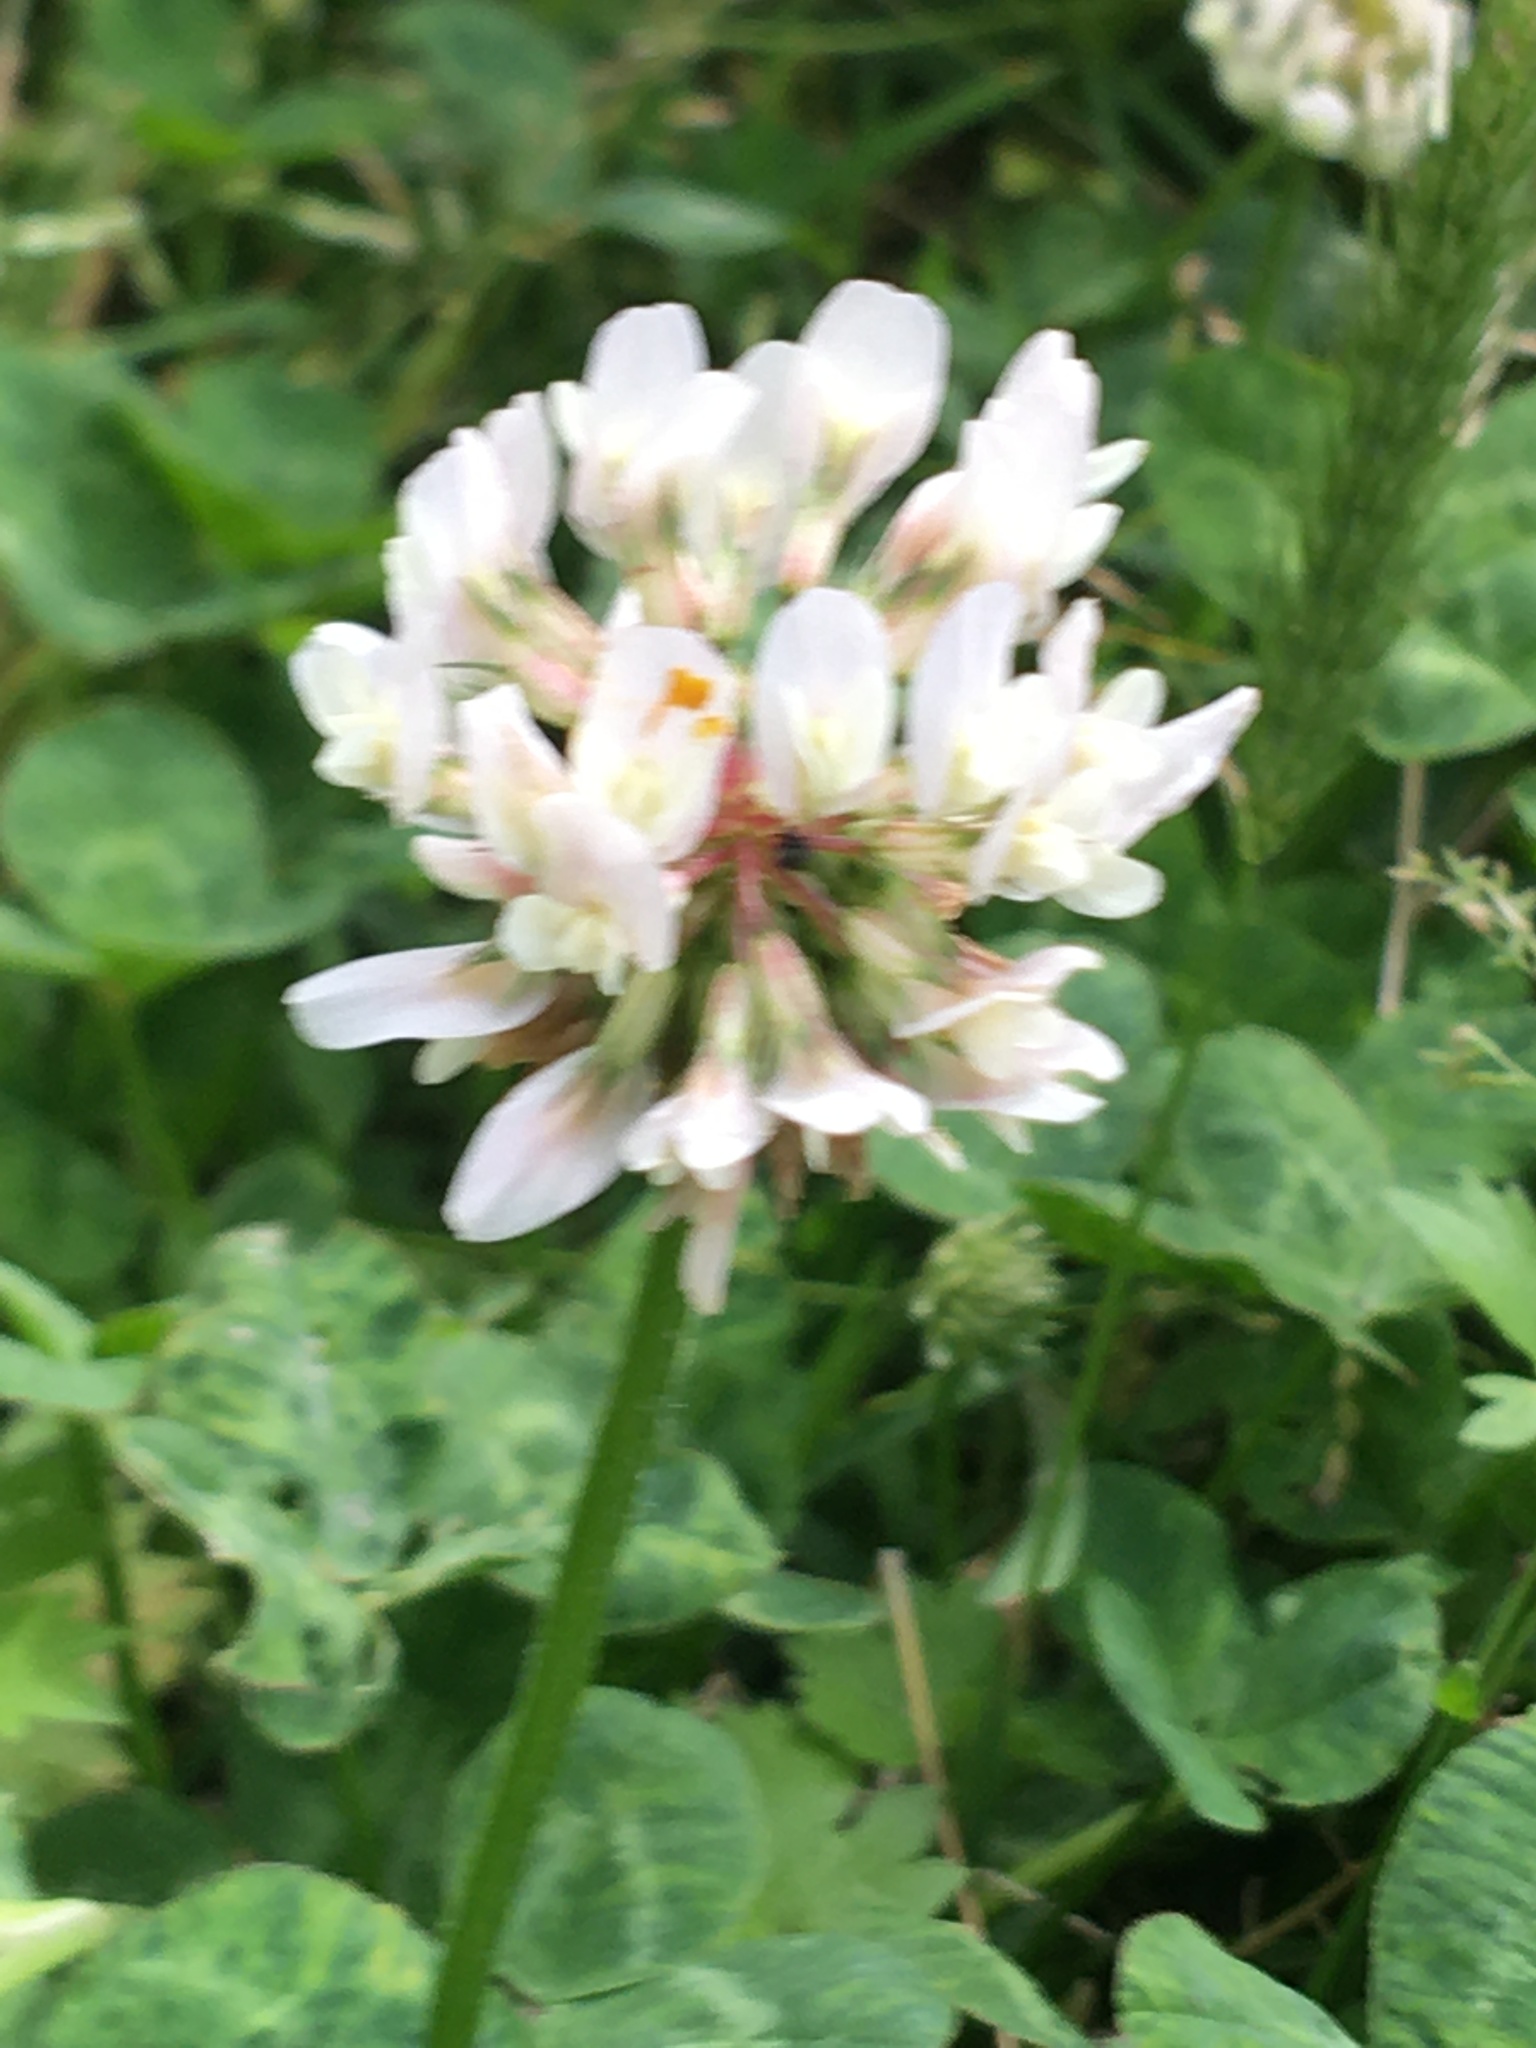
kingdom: Plantae
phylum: Tracheophyta
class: Magnoliopsida
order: Fabales
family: Fabaceae
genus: Trifolium
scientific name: Trifolium repens
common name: White clover
